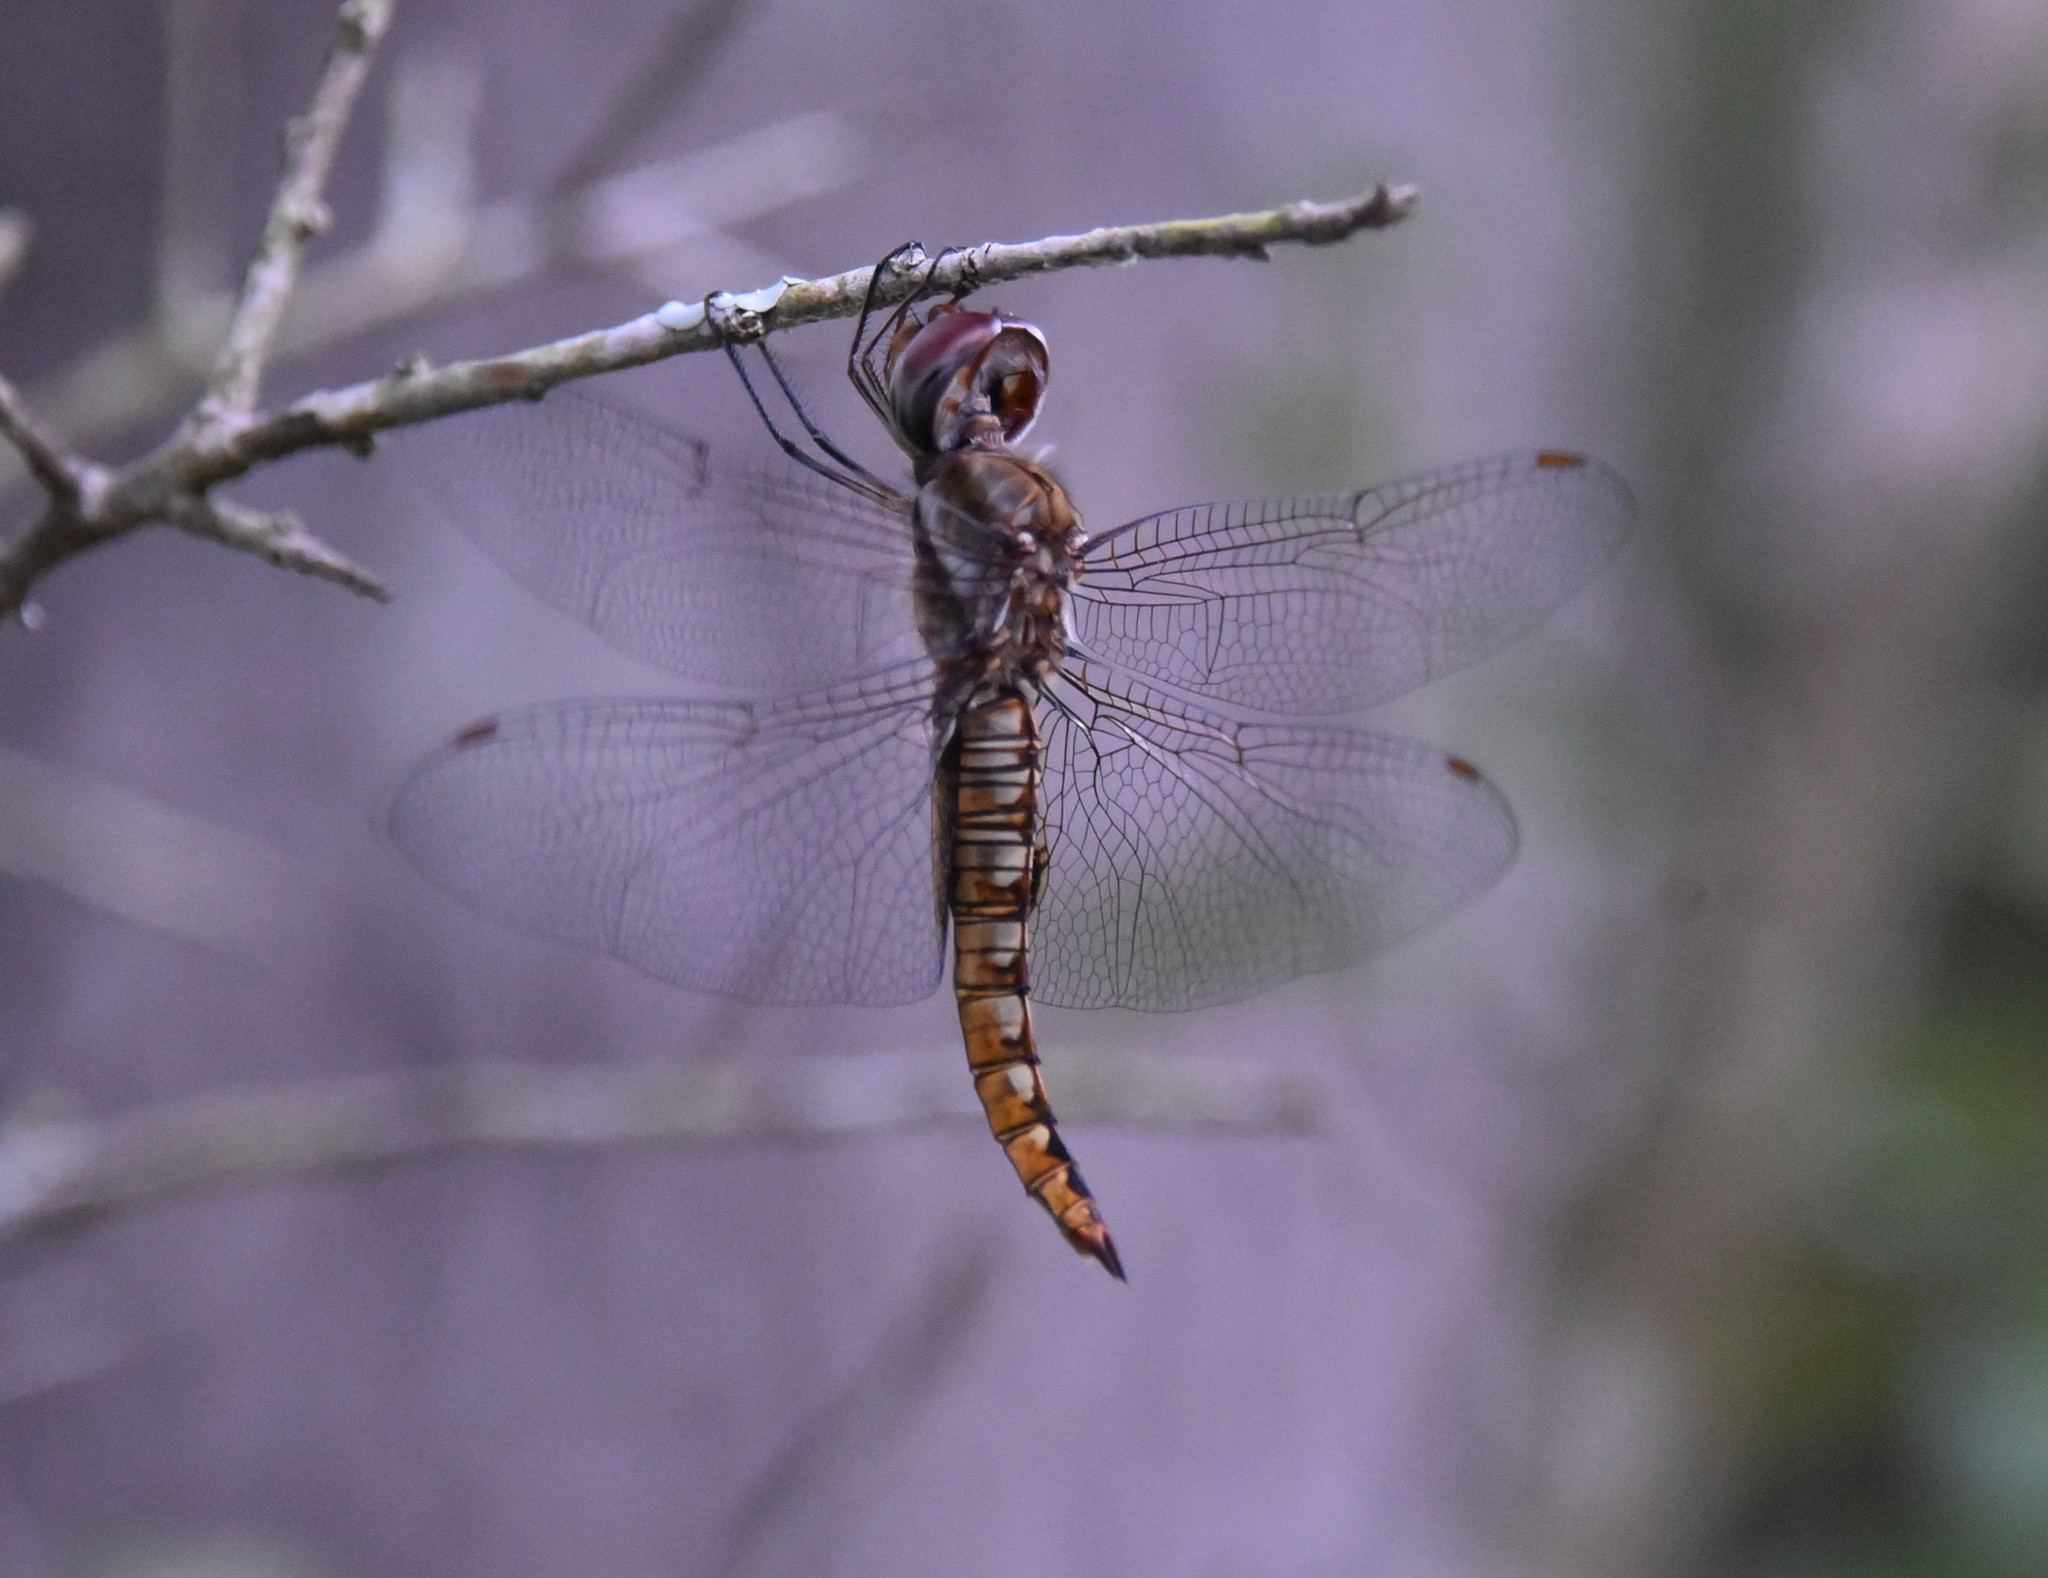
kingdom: Animalia
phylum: Arthropoda
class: Insecta
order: Odonata
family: Libellulidae
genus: Pantala
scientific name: Pantala hymenaea
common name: Spot-winged glider
